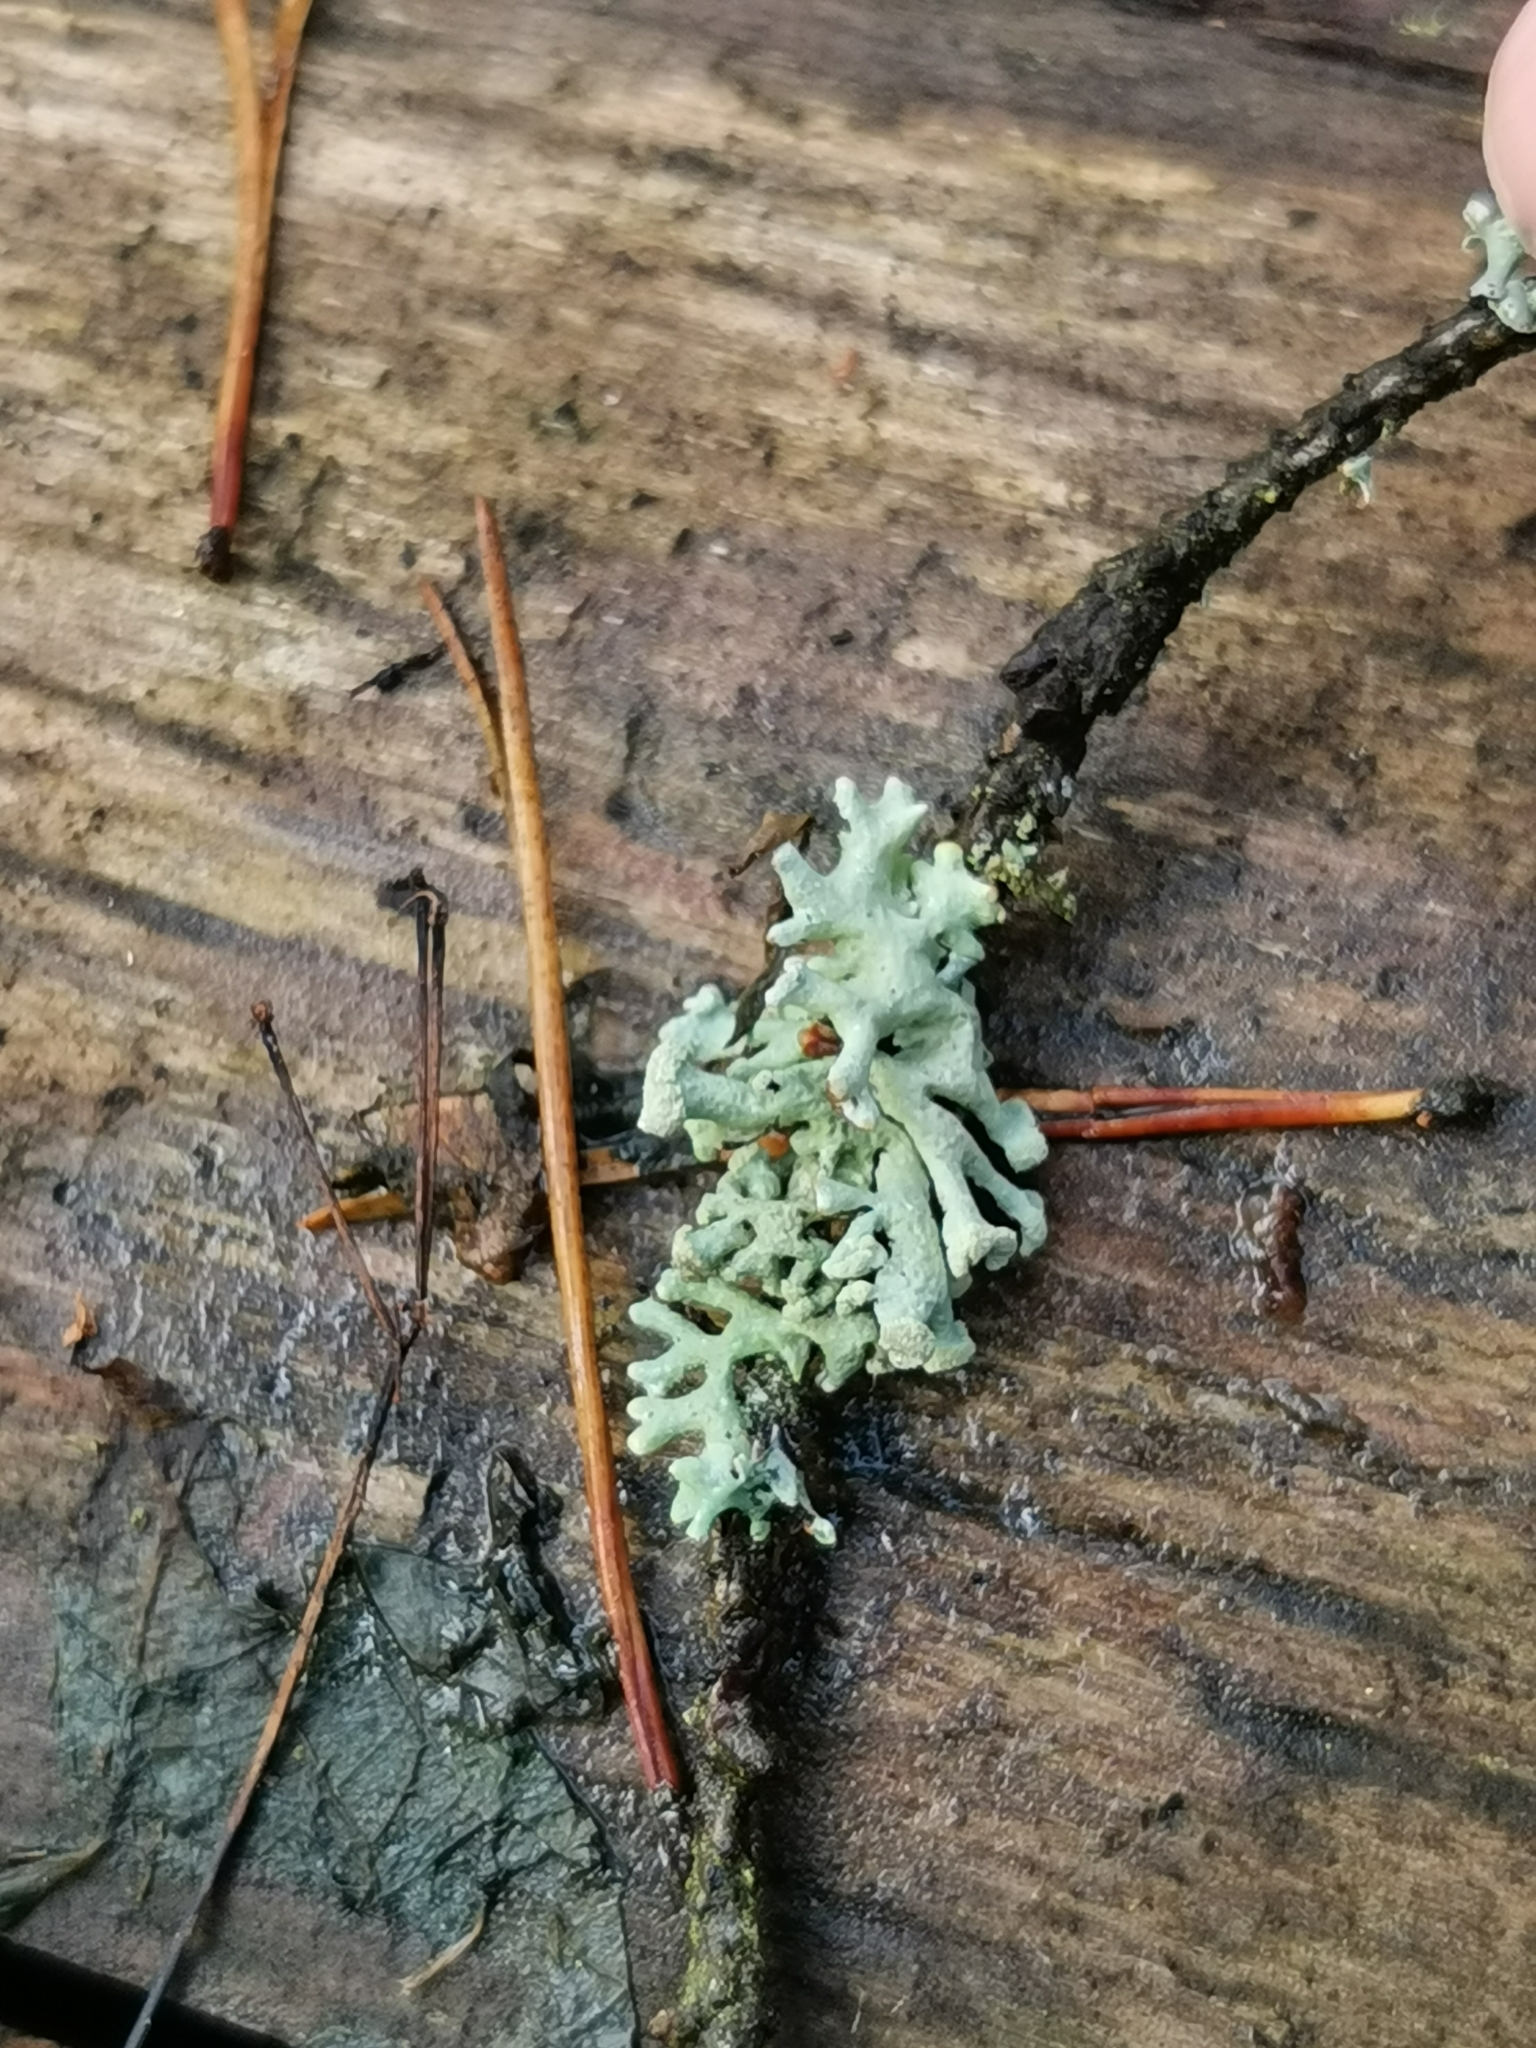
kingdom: Fungi
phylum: Ascomycota
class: Lecanoromycetes
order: Lecanorales
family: Parmeliaceae
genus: Hypogymnia
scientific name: Hypogymnia tubulosa
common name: Powder-headed tube lichen
